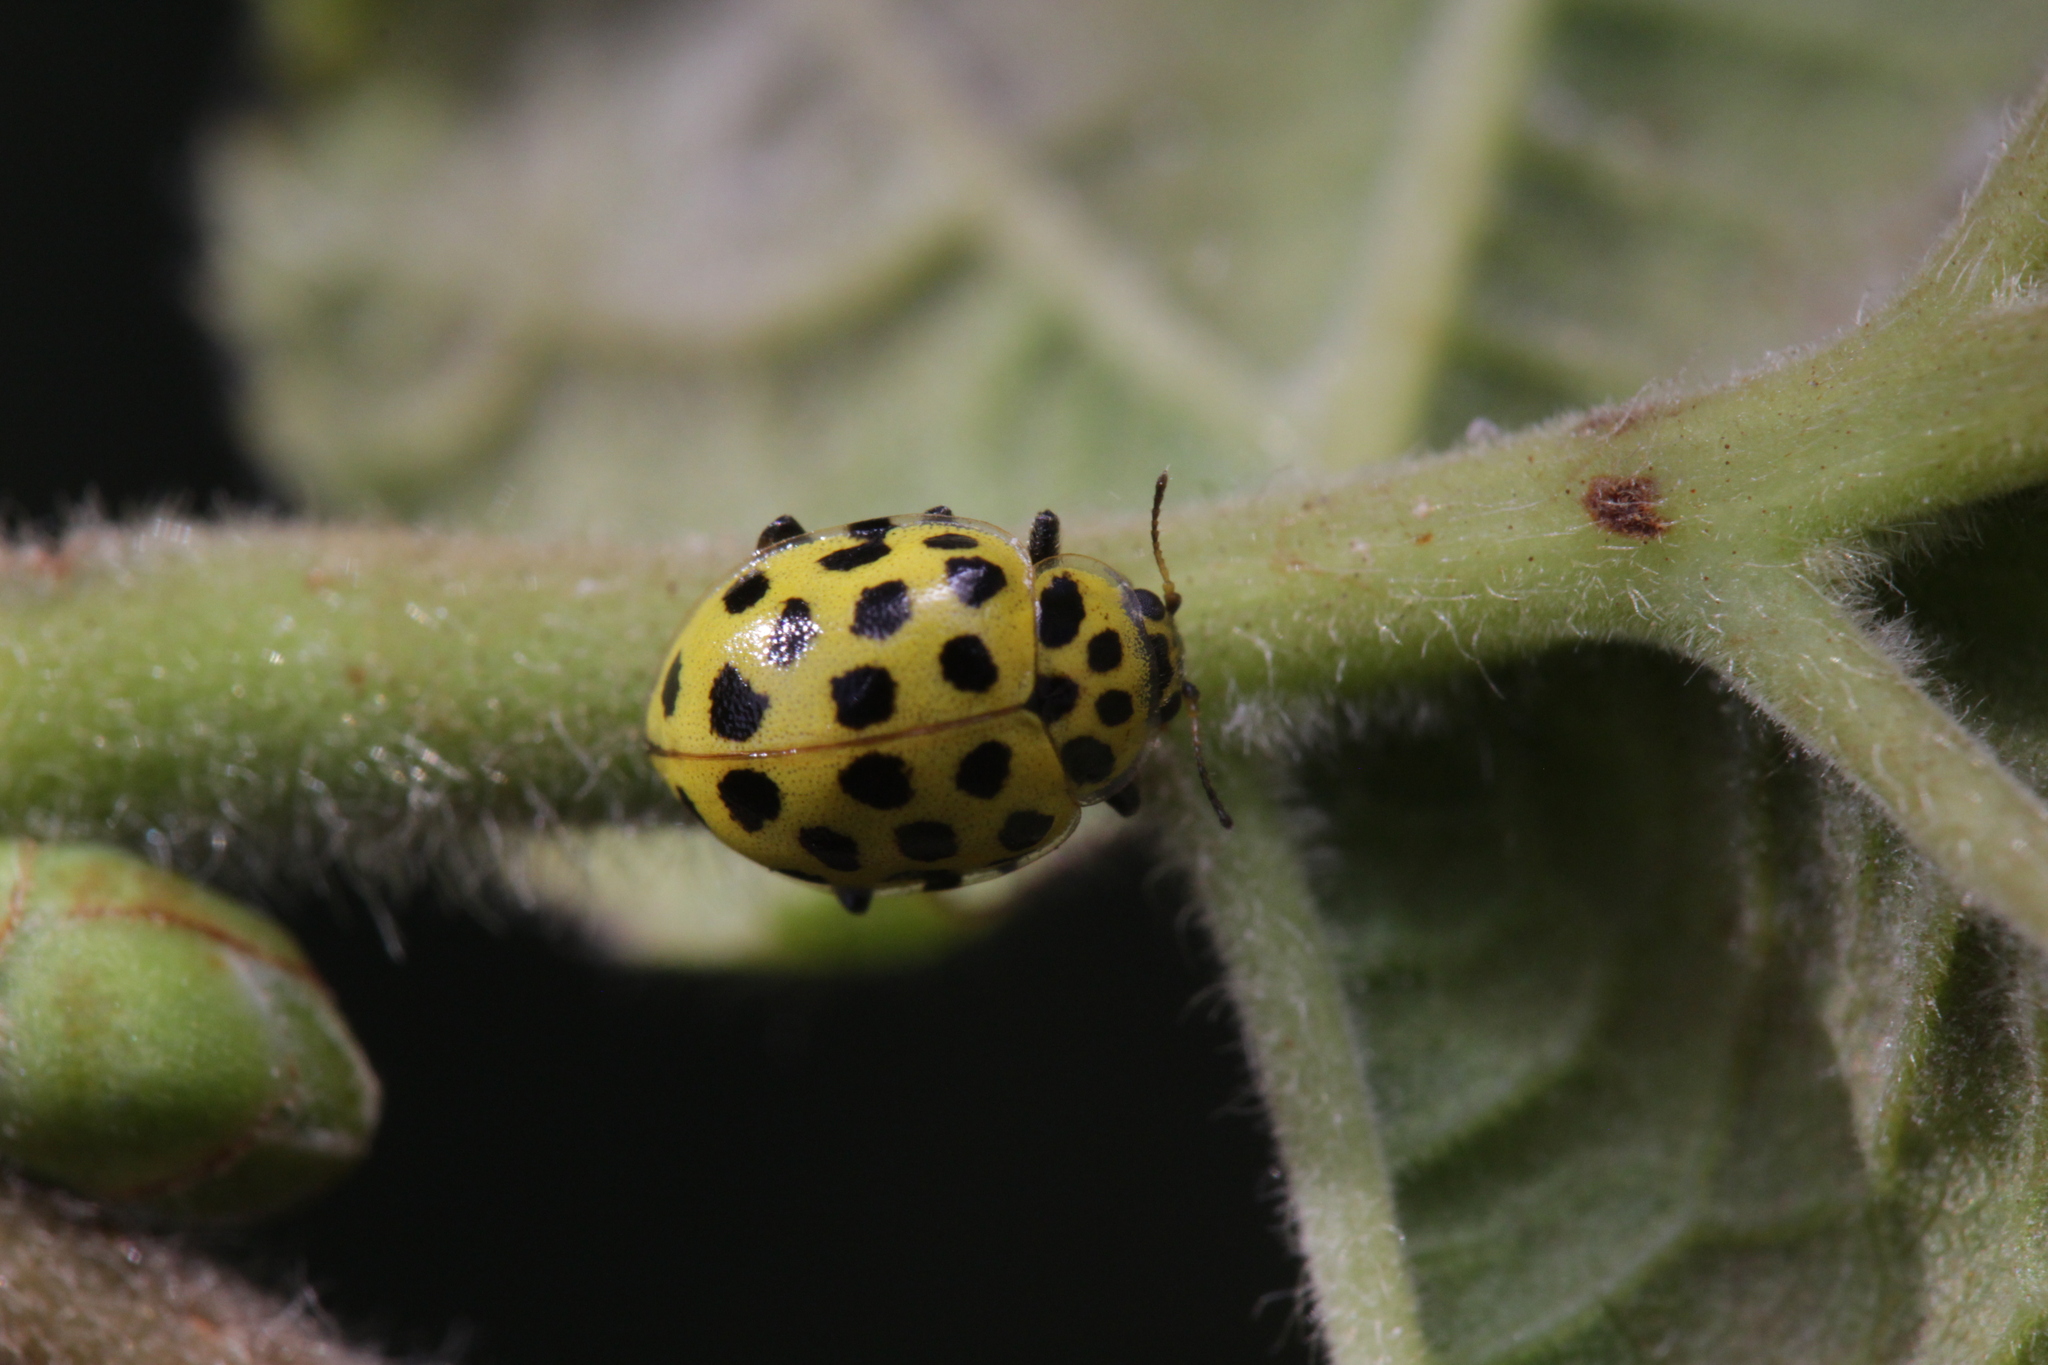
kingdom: Animalia
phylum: Arthropoda
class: Insecta
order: Coleoptera
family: Coccinellidae
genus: Psyllobora
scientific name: Psyllobora vigintiduopunctata
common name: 22-spot ladybird
